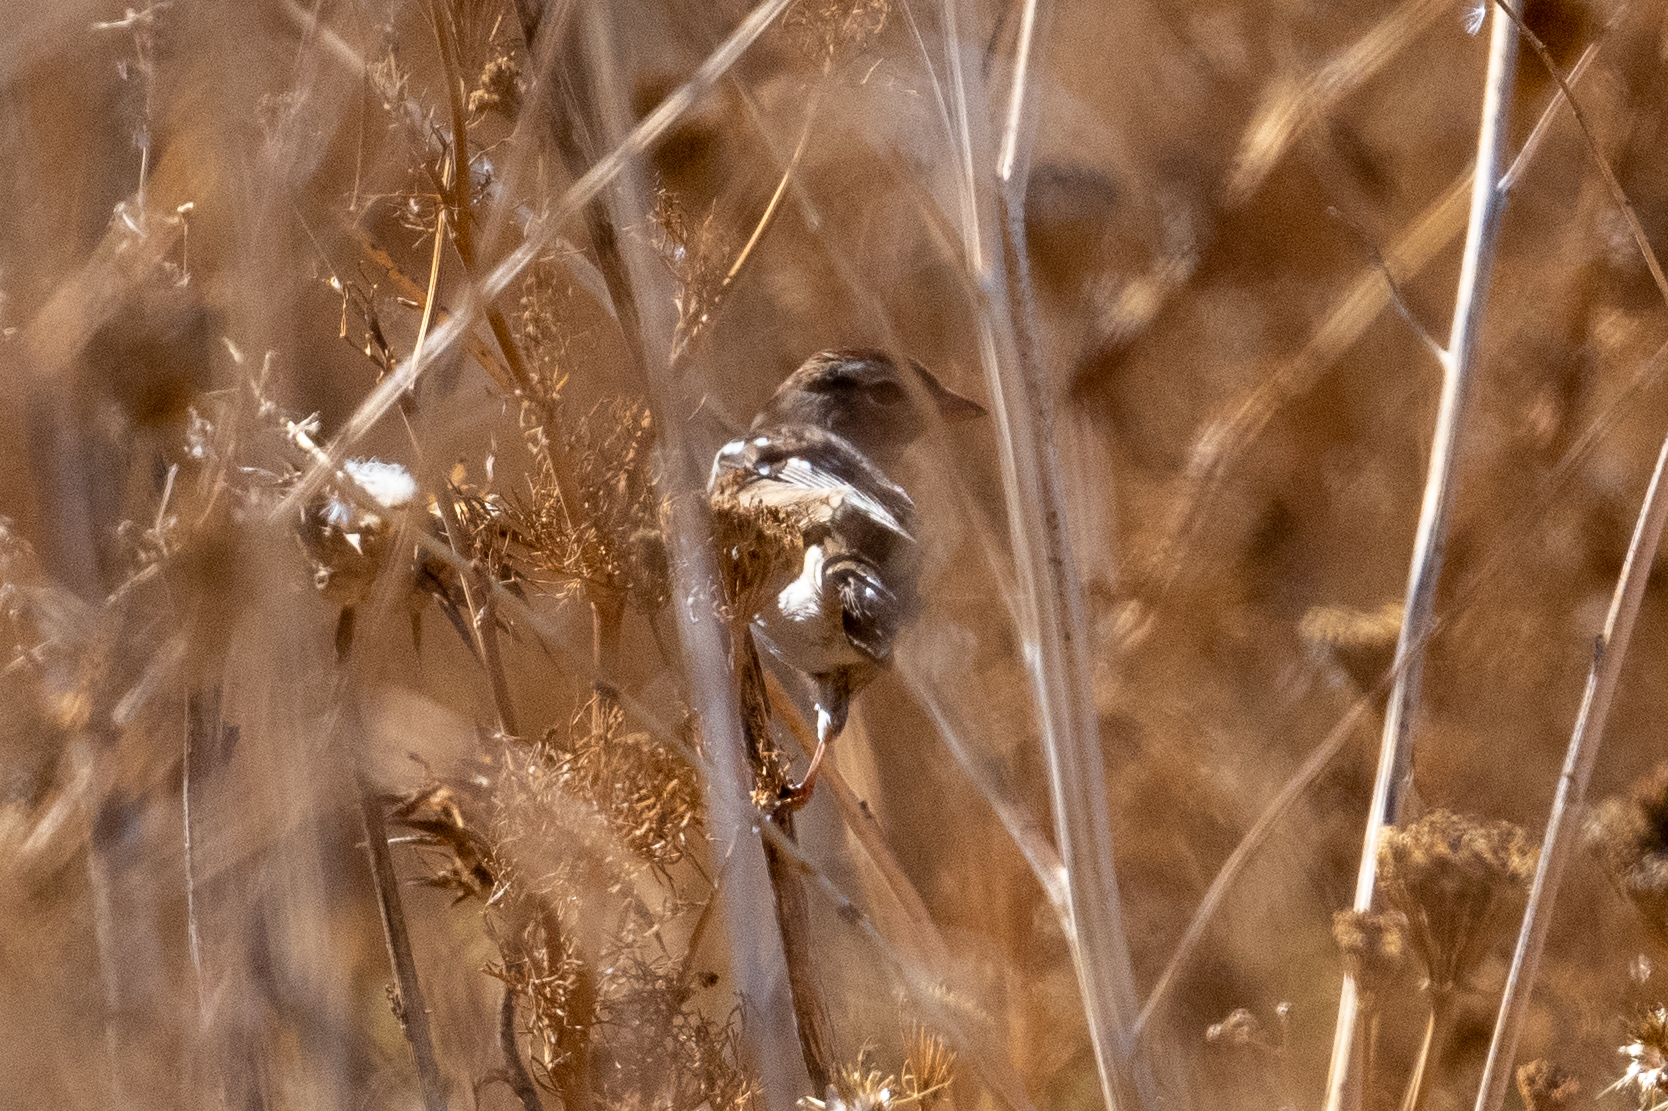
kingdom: Animalia
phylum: Chordata
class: Aves
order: Passeriformes
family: Passerellidae
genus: Zonotrichia
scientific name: Zonotrichia leucophrys
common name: White-crowned sparrow
